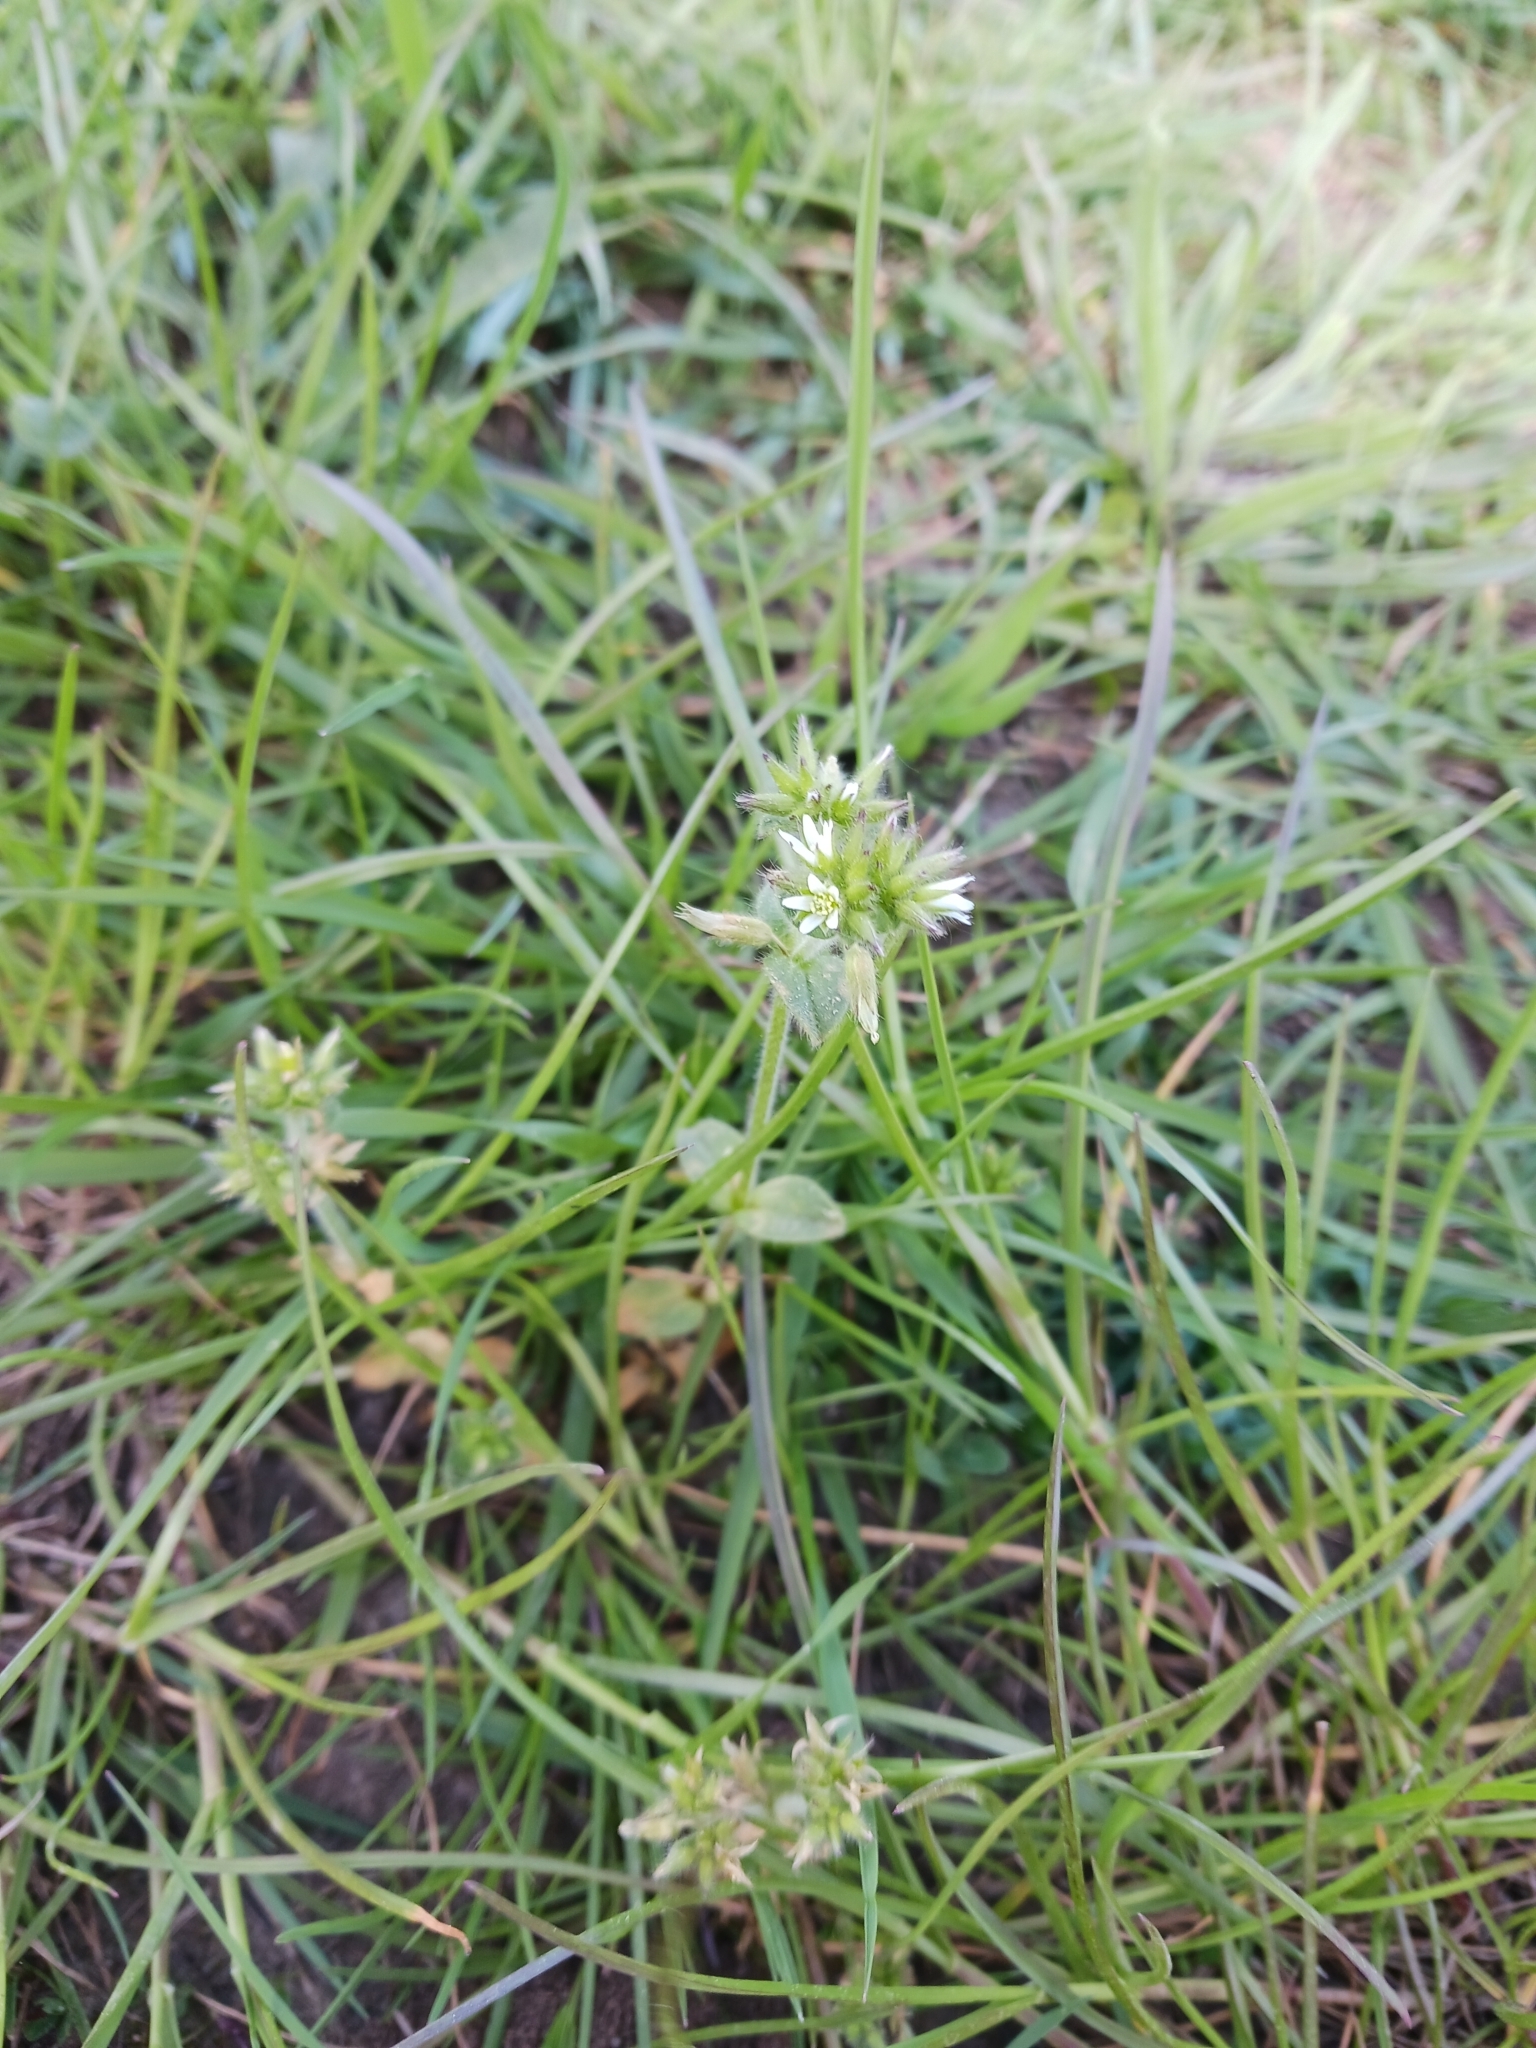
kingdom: Plantae
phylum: Tracheophyta
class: Magnoliopsida
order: Caryophyllales
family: Caryophyllaceae
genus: Cerastium
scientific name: Cerastium glomeratum
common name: Sticky chickweed
